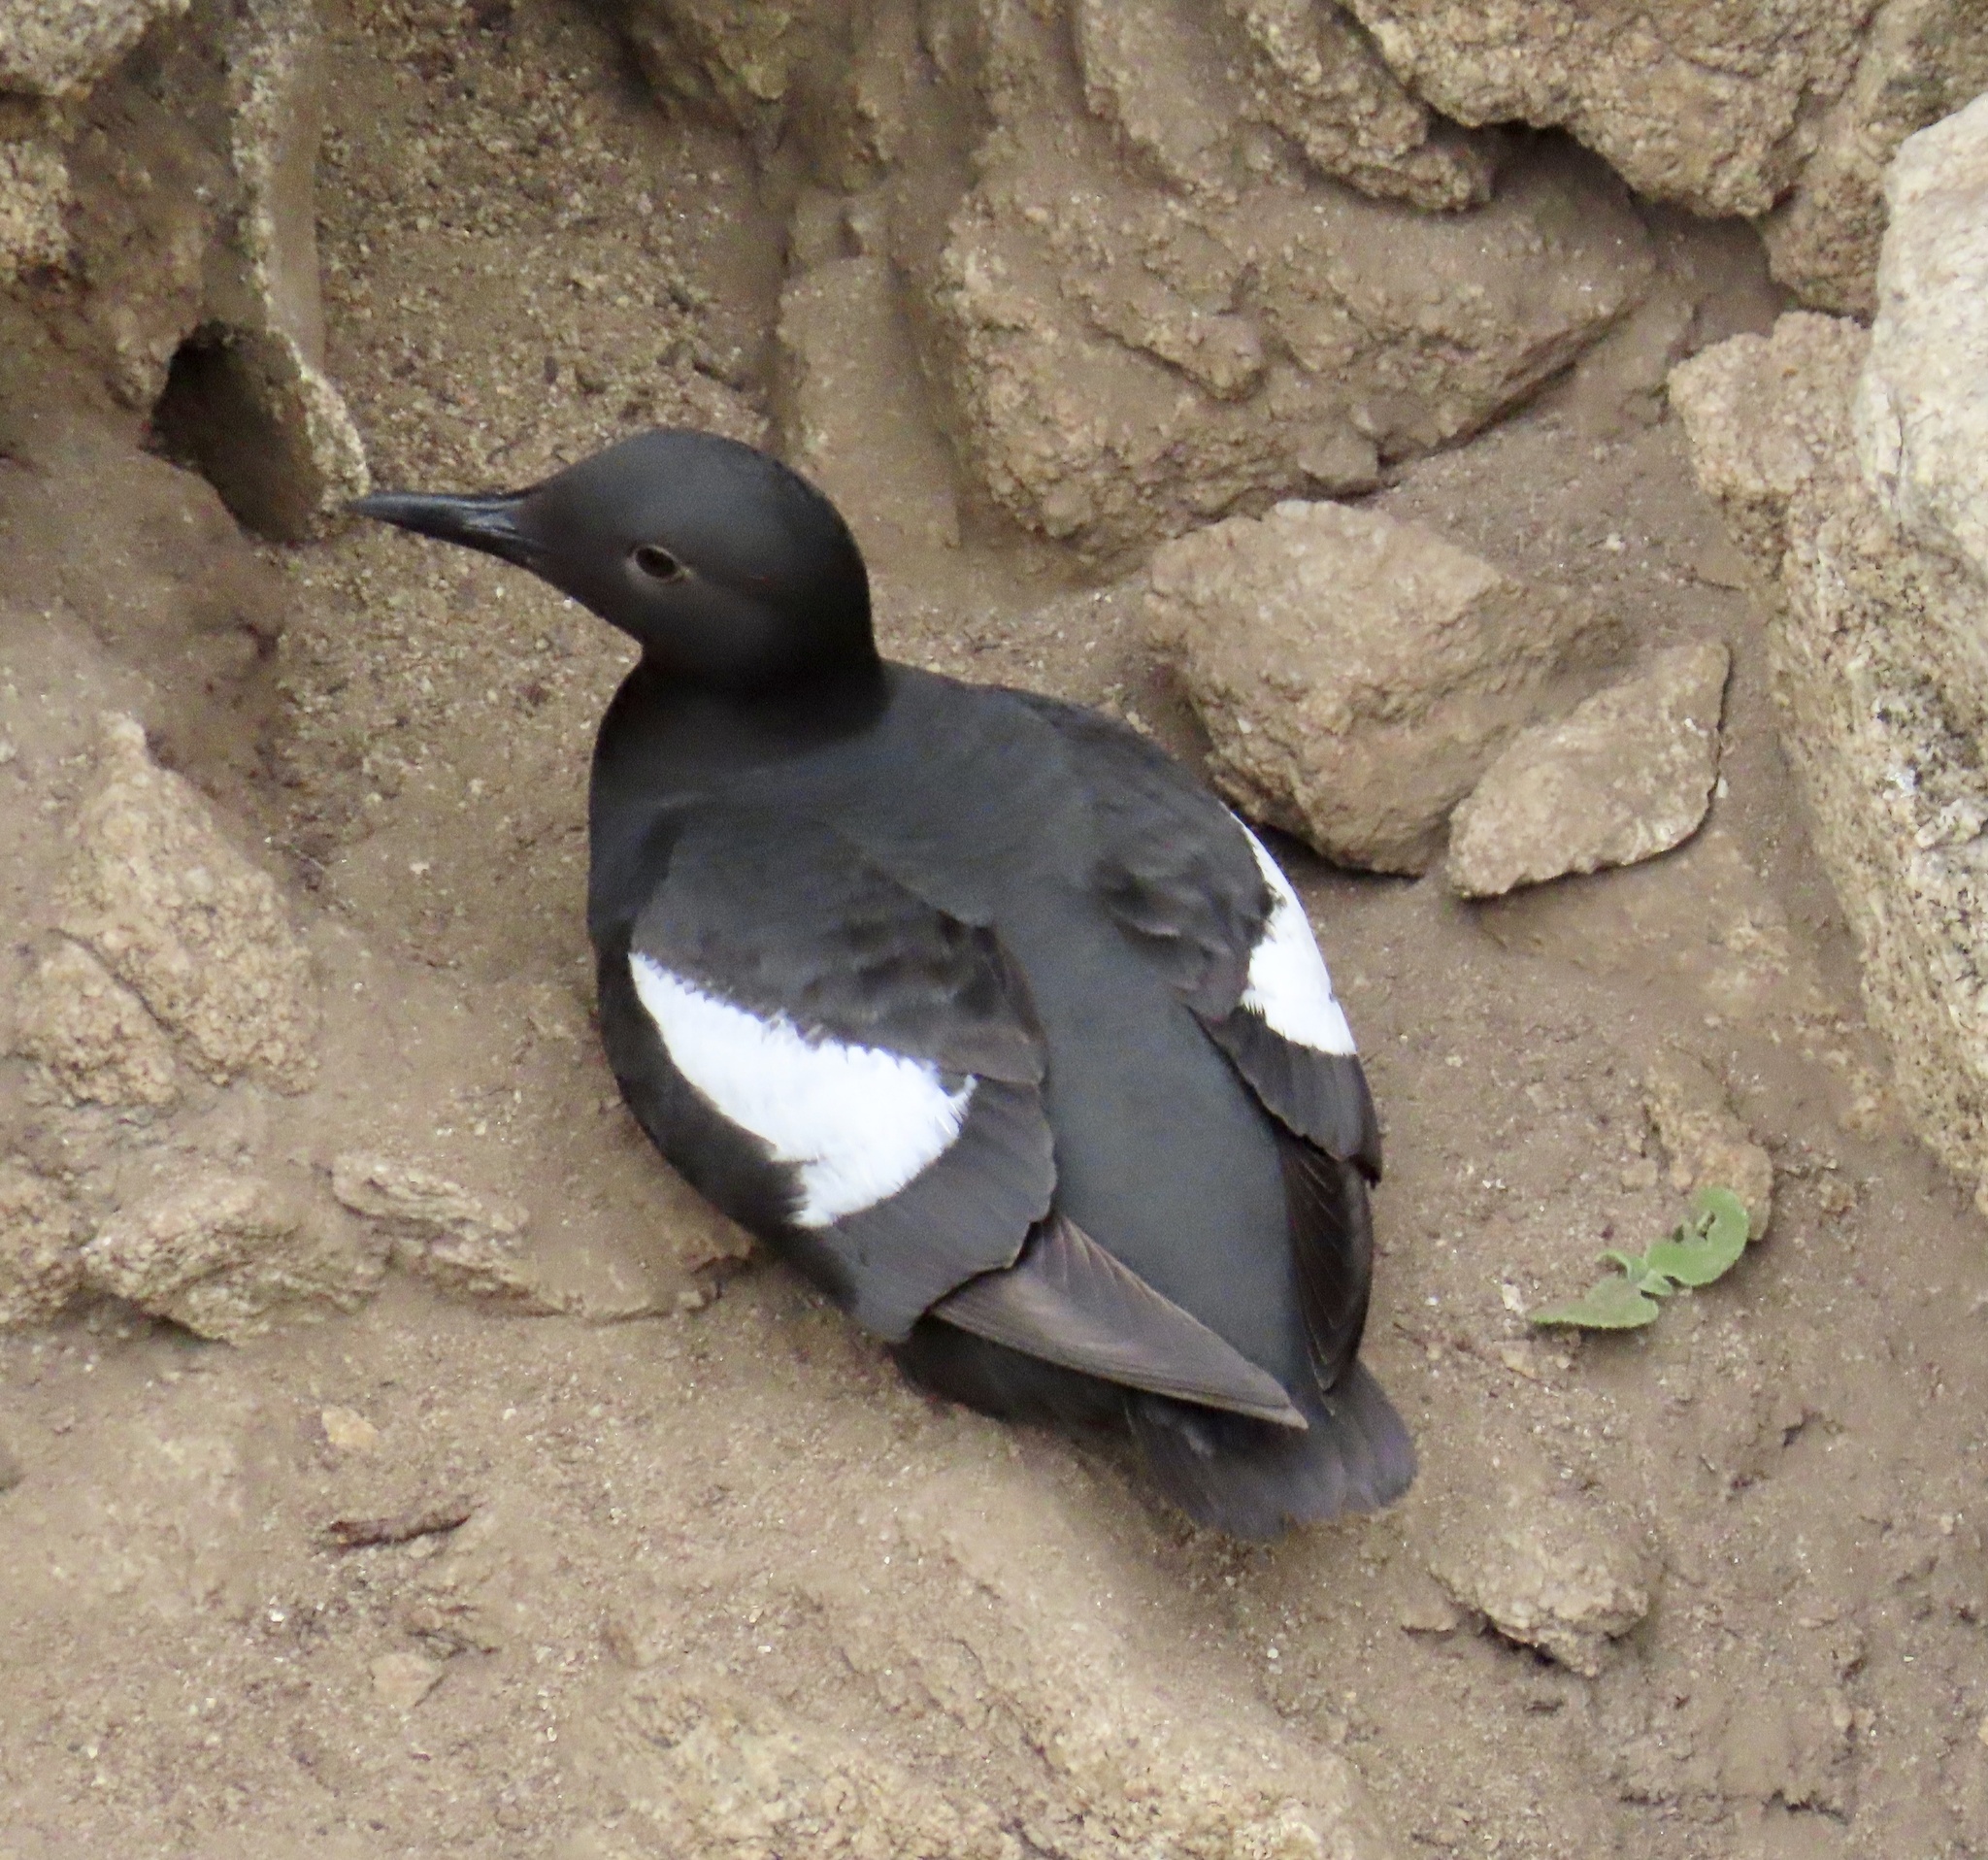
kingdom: Animalia
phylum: Chordata
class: Aves
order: Charadriiformes
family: Alcidae
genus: Cepphus
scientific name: Cepphus columba
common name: Pigeon guillemot
